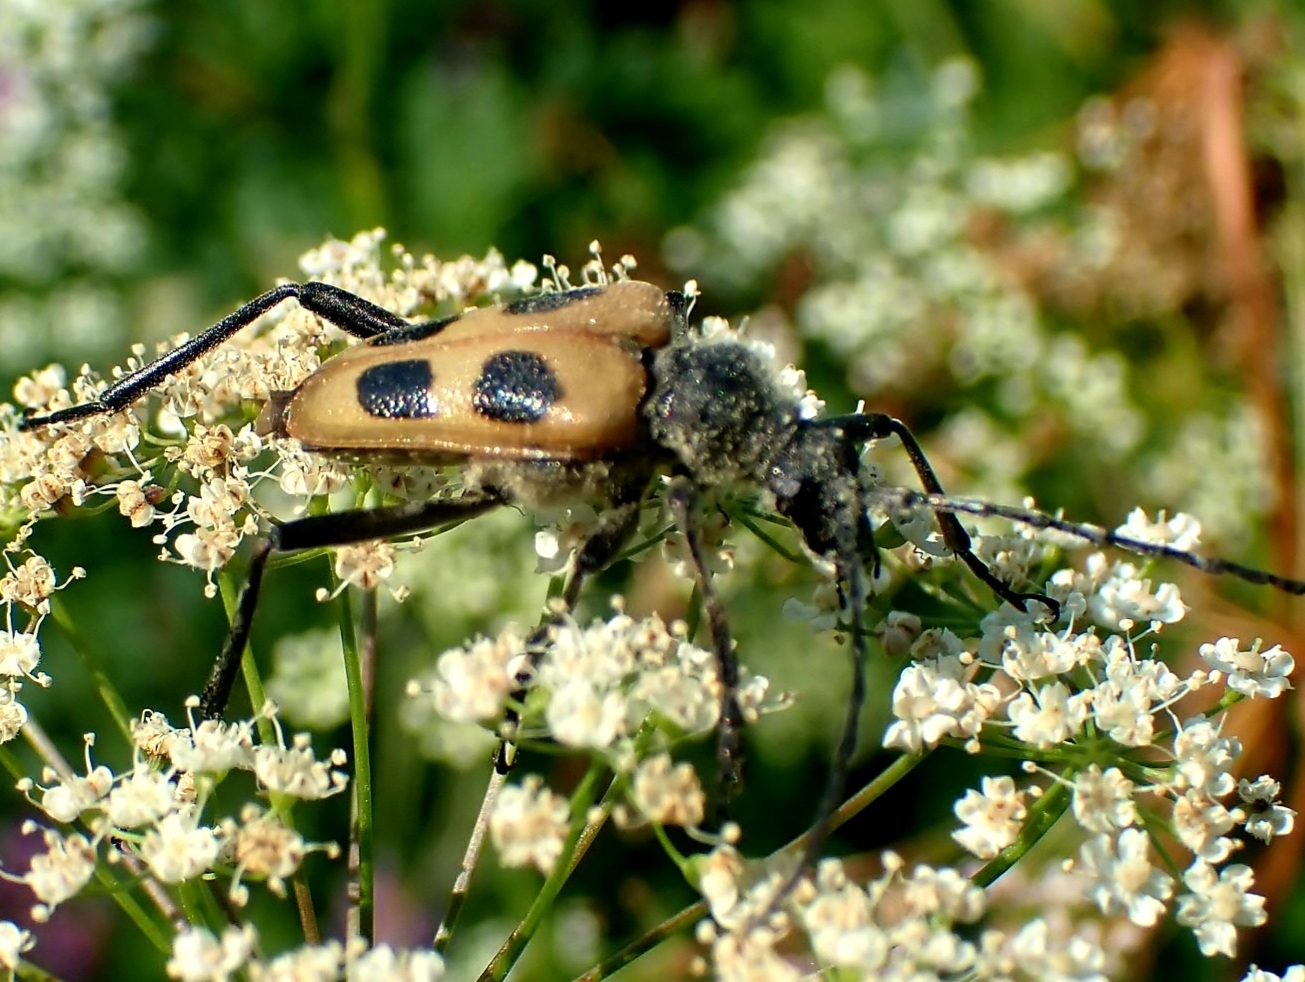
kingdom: Animalia
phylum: Arthropoda
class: Insecta
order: Coleoptera
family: Cerambycidae
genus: Pachyta
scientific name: Pachyta quadrimaculata
